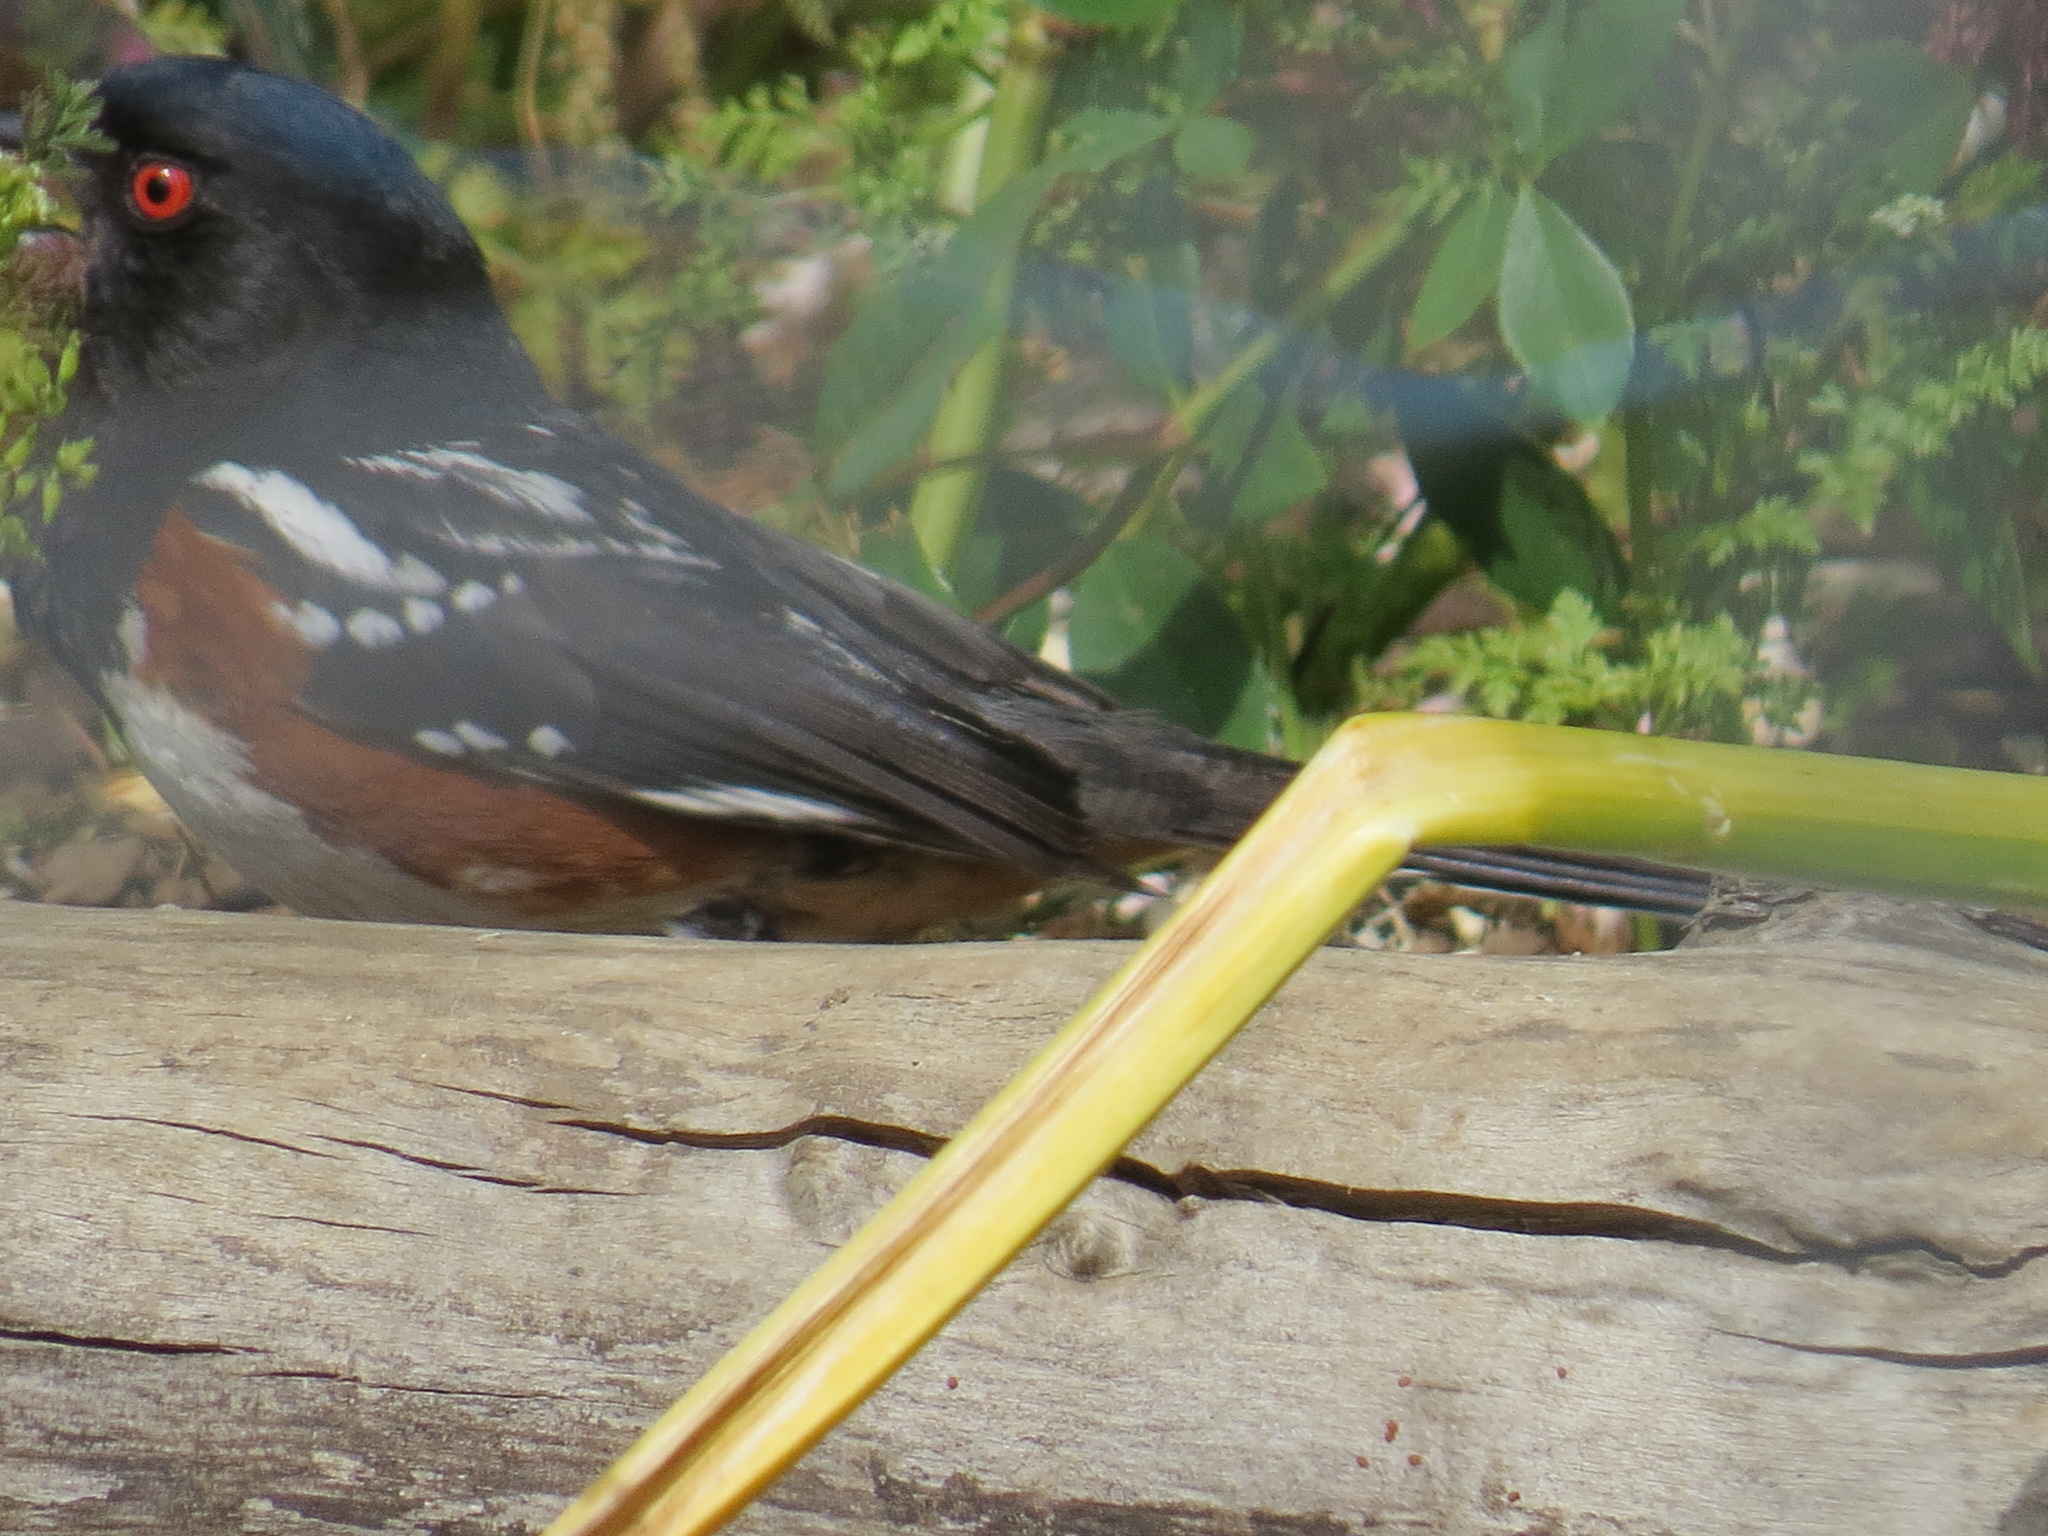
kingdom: Animalia
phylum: Chordata
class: Aves
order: Passeriformes
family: Passerellidae
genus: Pipilo
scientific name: Pipilo maculatus
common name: Spotted towhee
